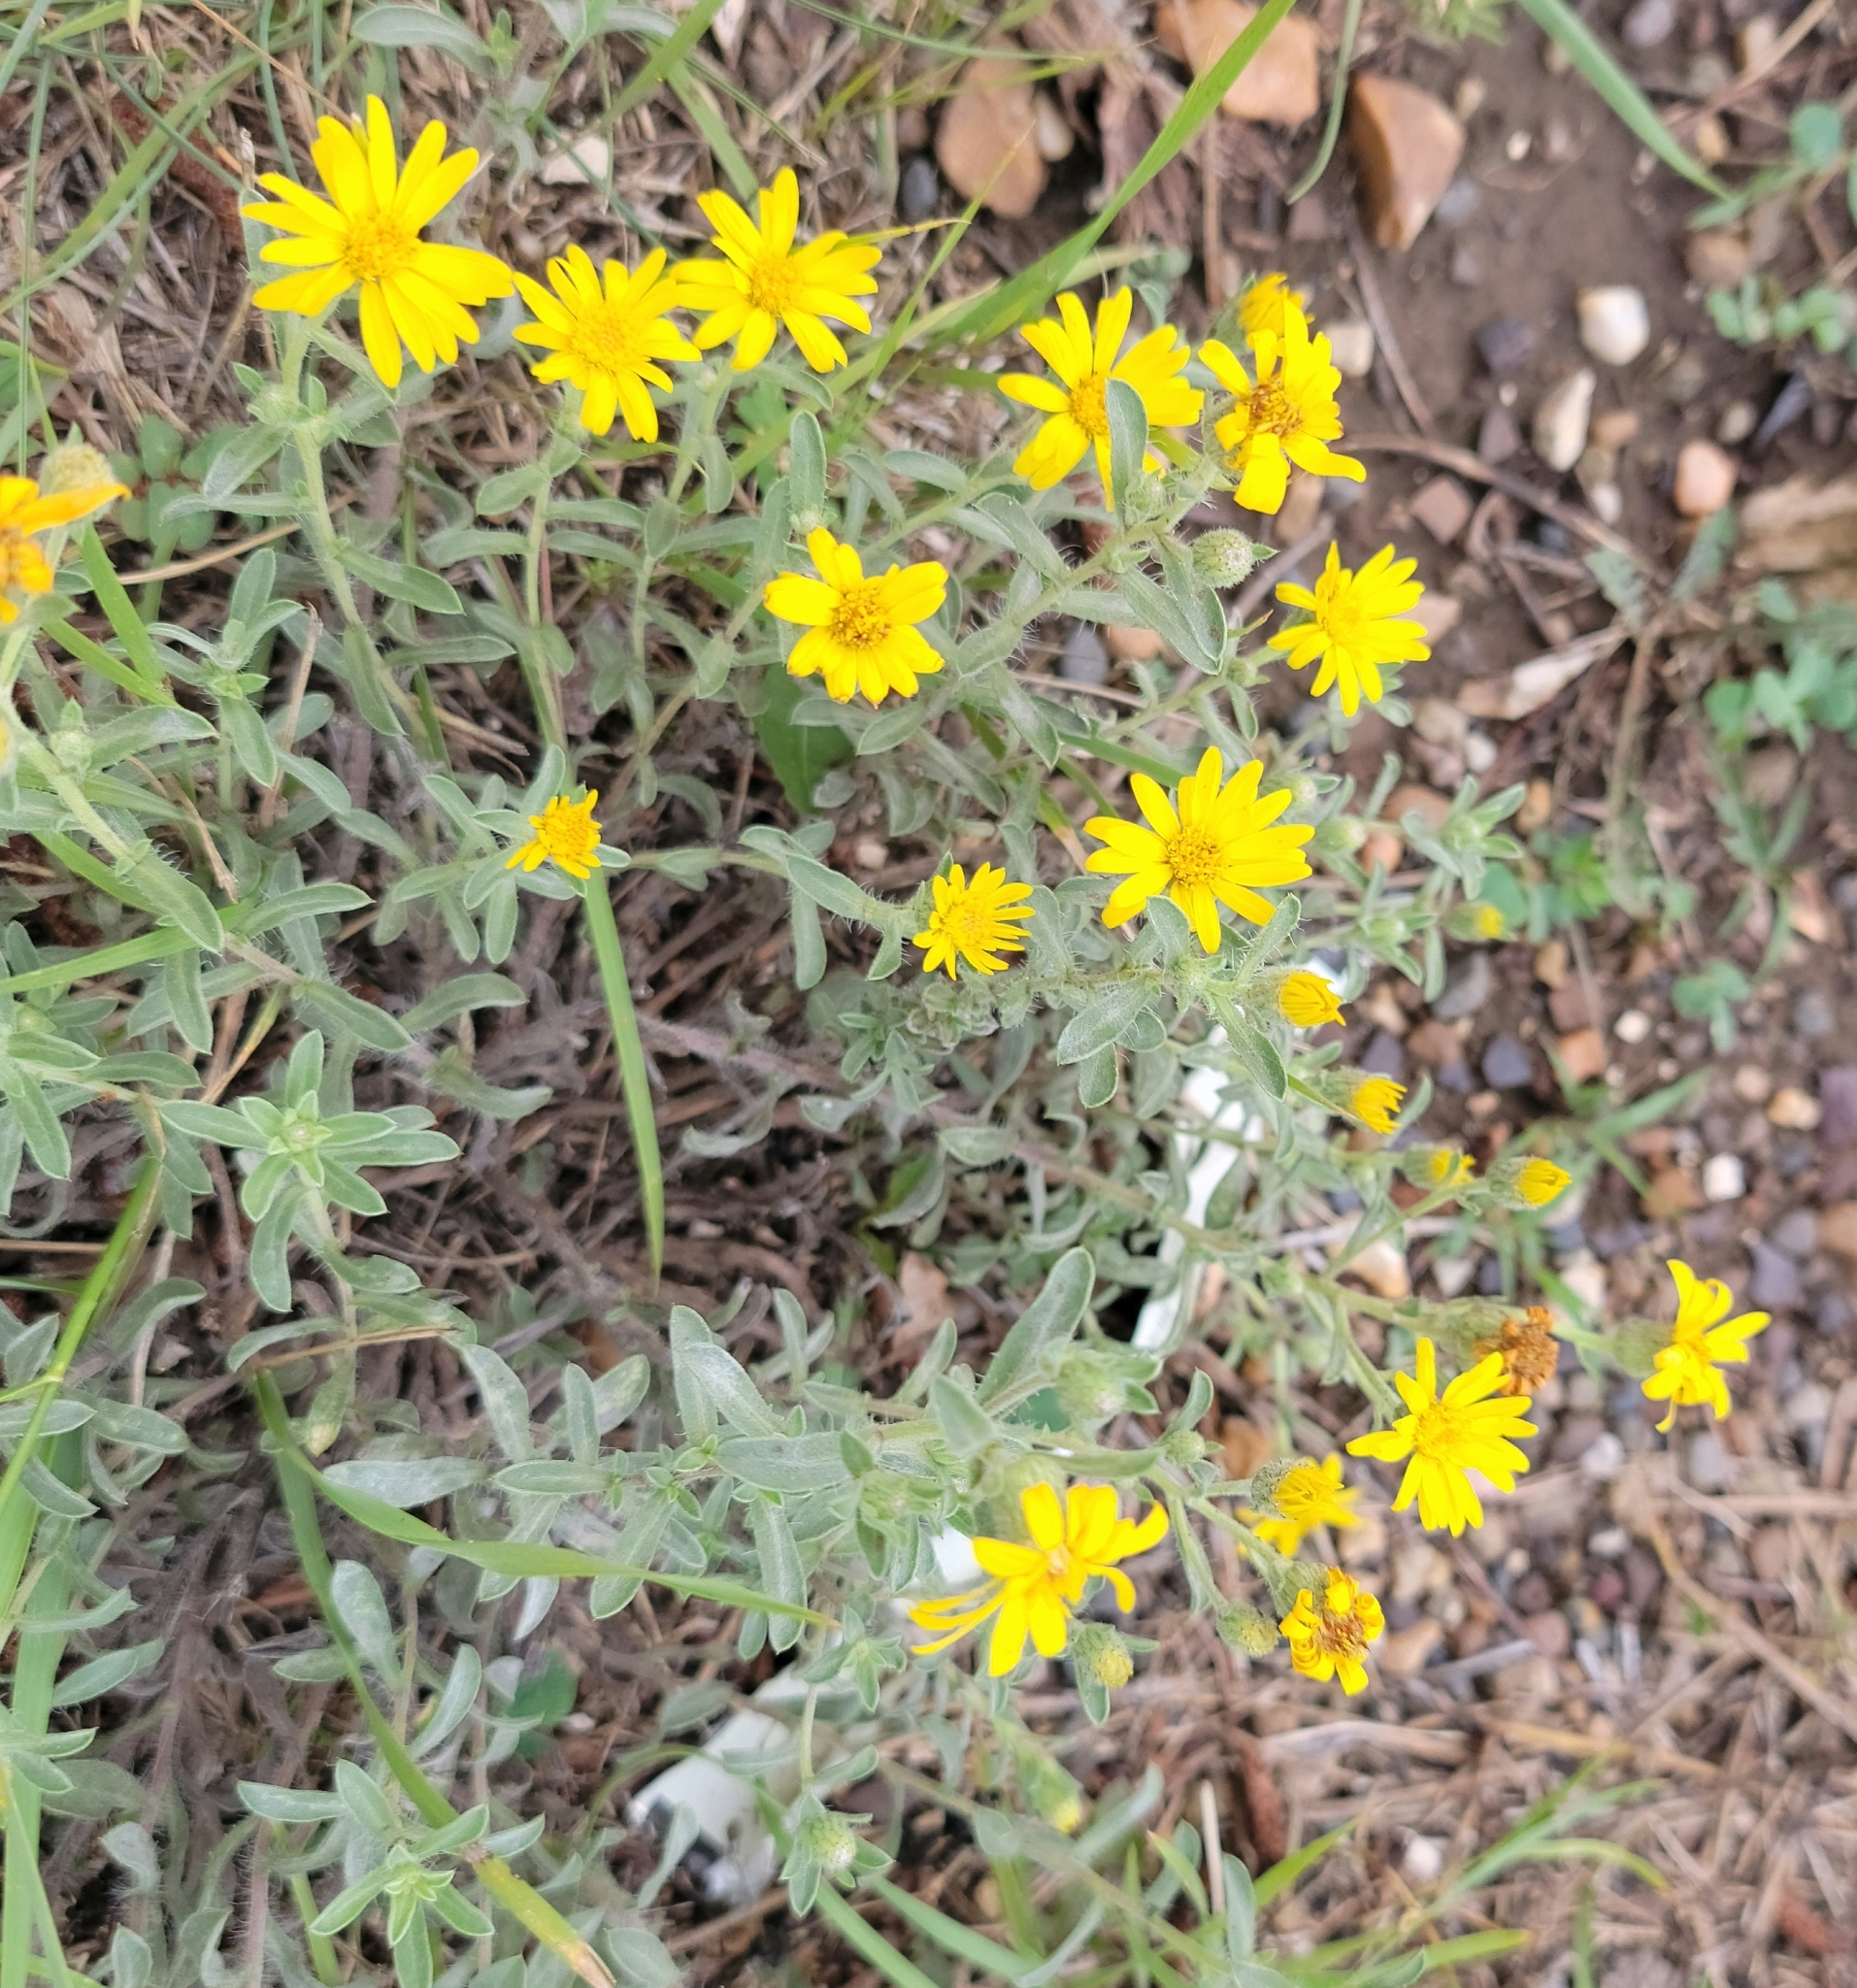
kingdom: Plantae
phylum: Tracheophyta
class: Magnoliopsida
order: Asterales
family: Asteraceae
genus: Heterotheca
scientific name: Heterotheca villosa
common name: Hairy false goldenaster
